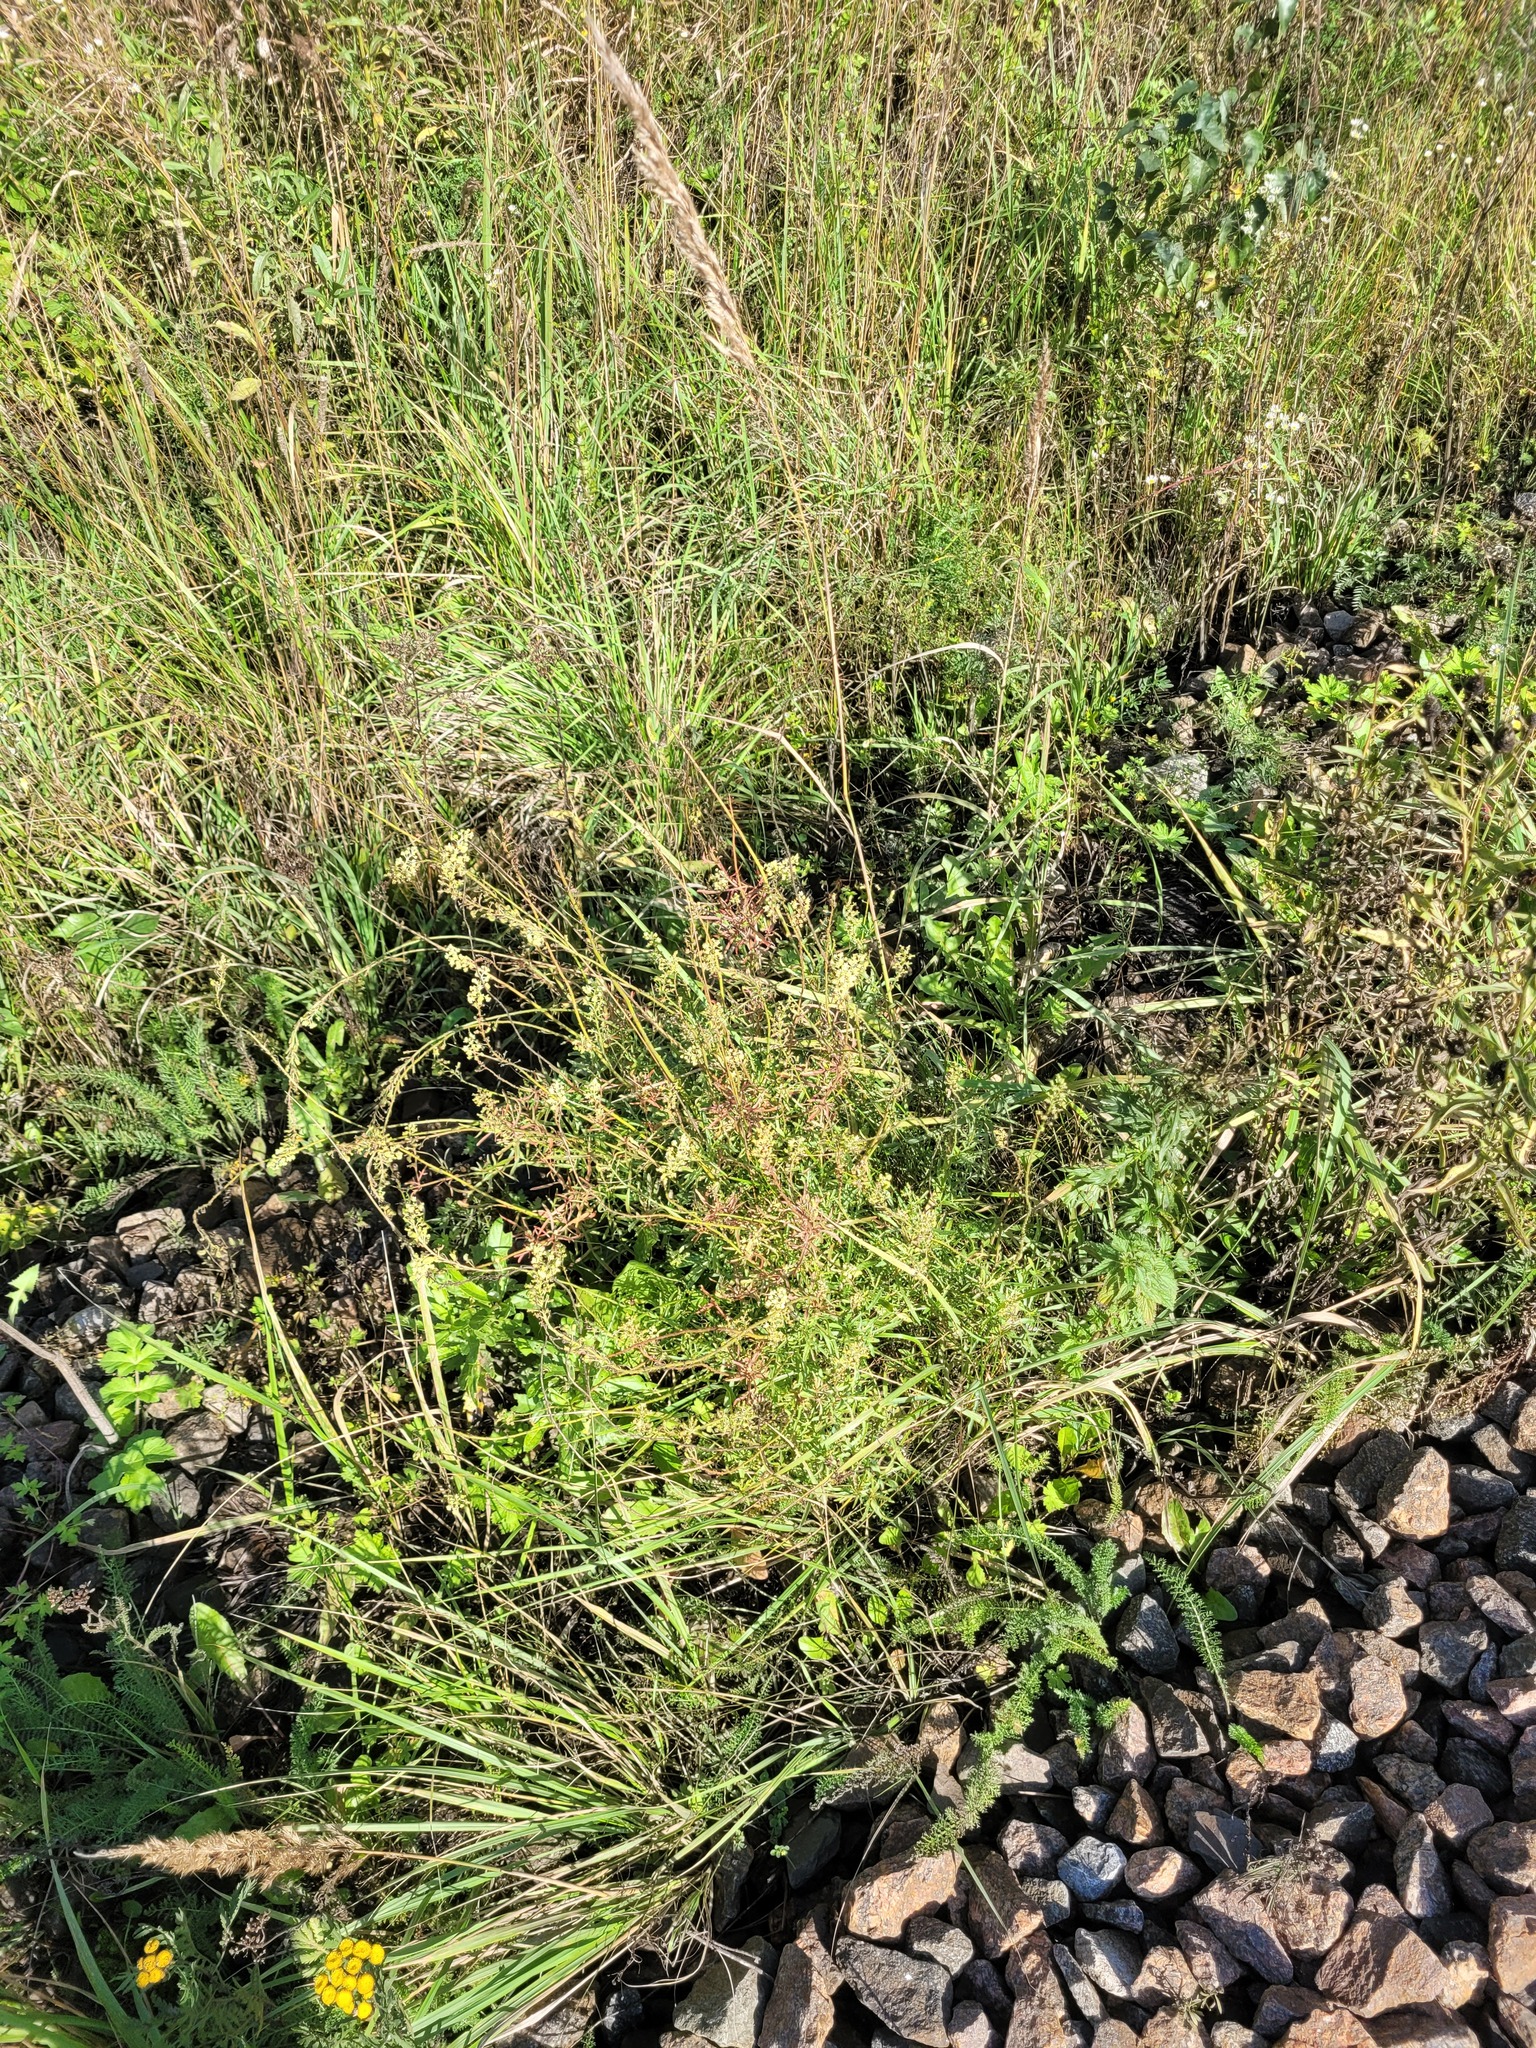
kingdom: Plantae
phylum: Tracheophyta
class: Magnoliopsida
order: Brassicales
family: Resedaceae
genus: Reseda
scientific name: Reseda lutea
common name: Wild mignonette
